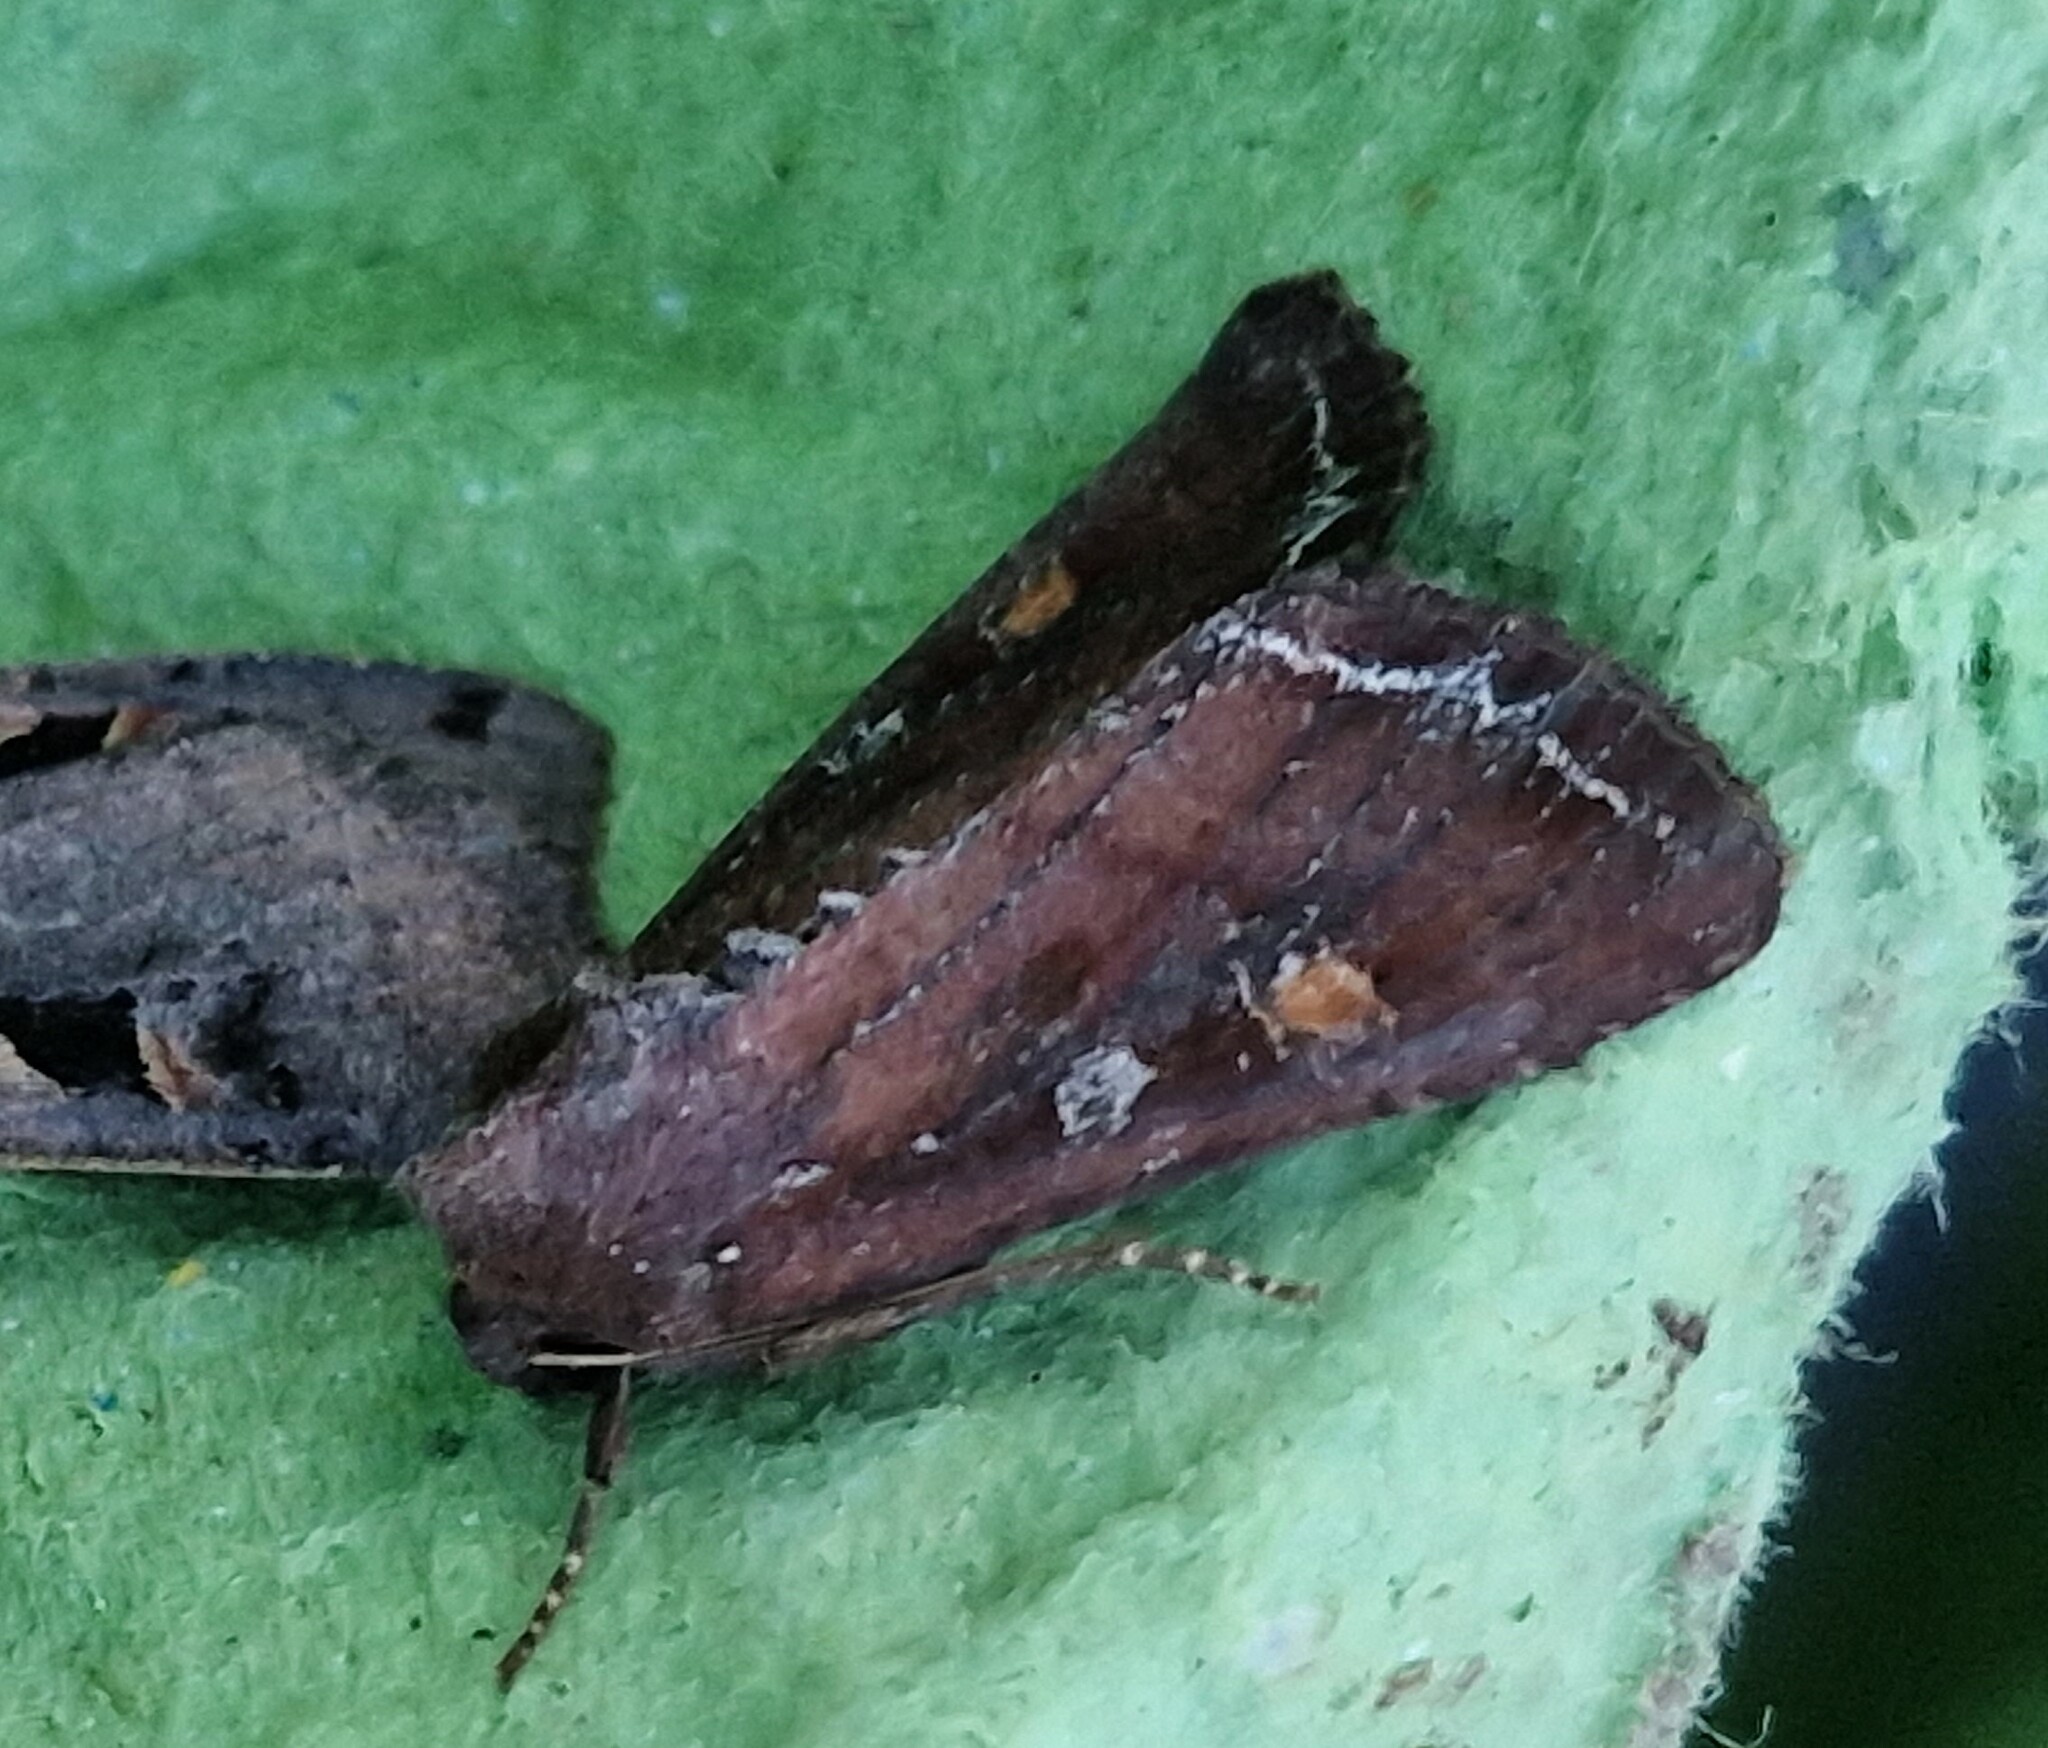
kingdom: Animalia
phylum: Arthropoda
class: Insecta
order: Lepidoptera
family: Noctuidae
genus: Lacanobia
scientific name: Lacanobia oleracea
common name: Bright-line brown-eye
